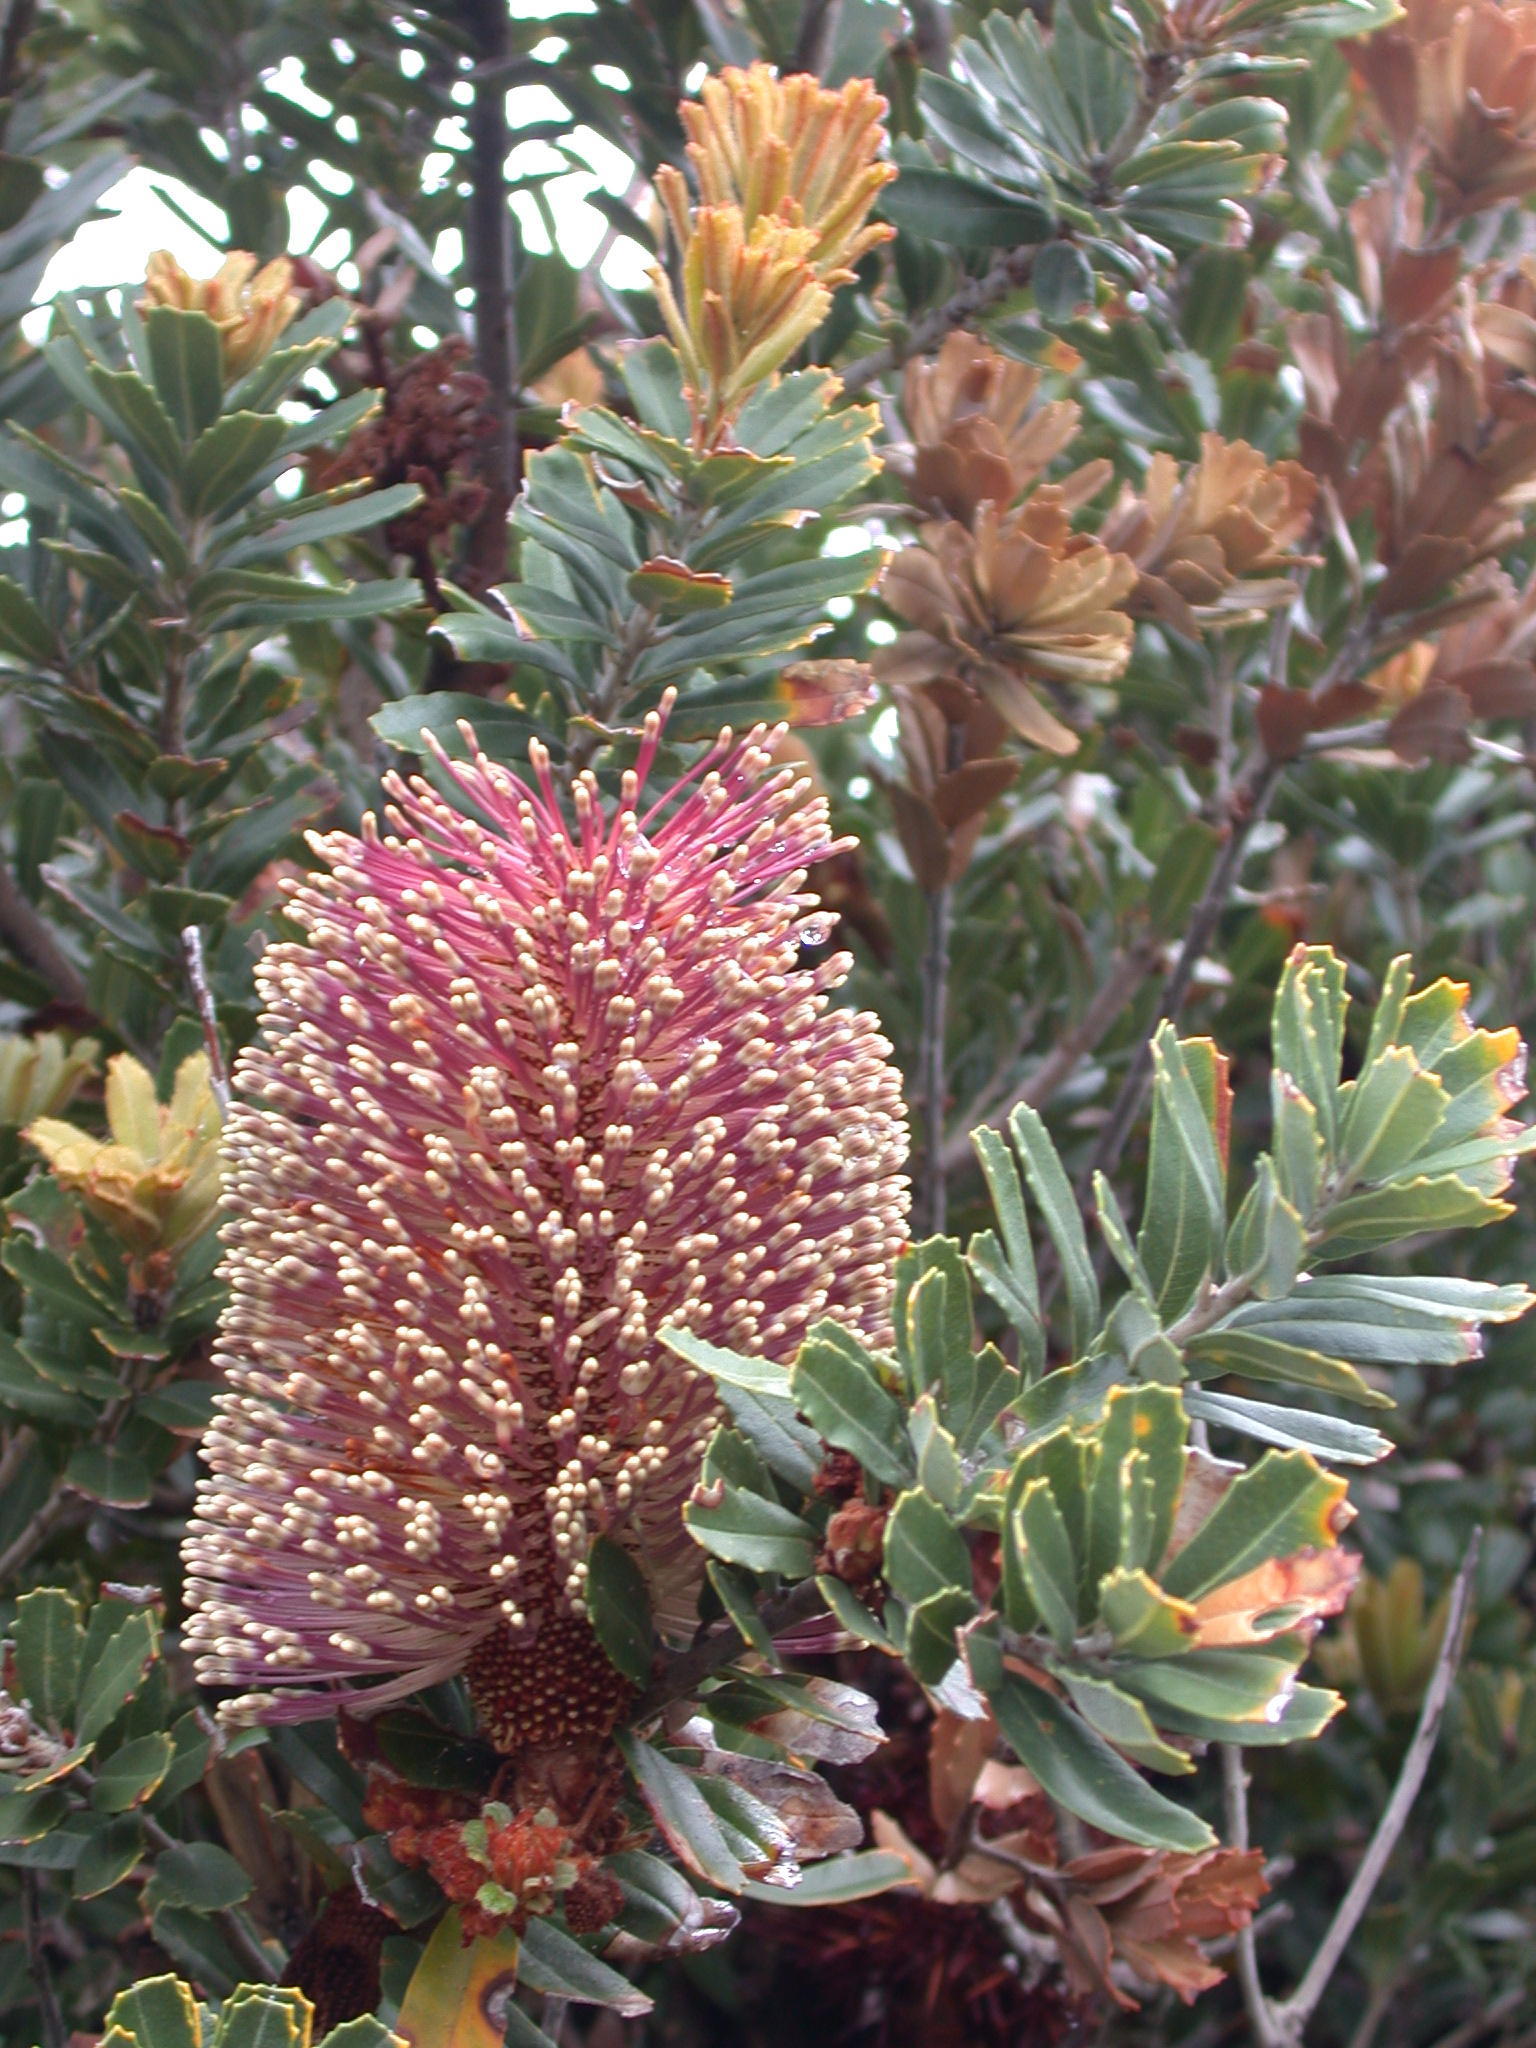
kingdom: Plantae
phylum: Tracheophyta
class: Magnoliopsida
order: Proteales
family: Proteaceae
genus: Banksia
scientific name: Banksia praemorsa
